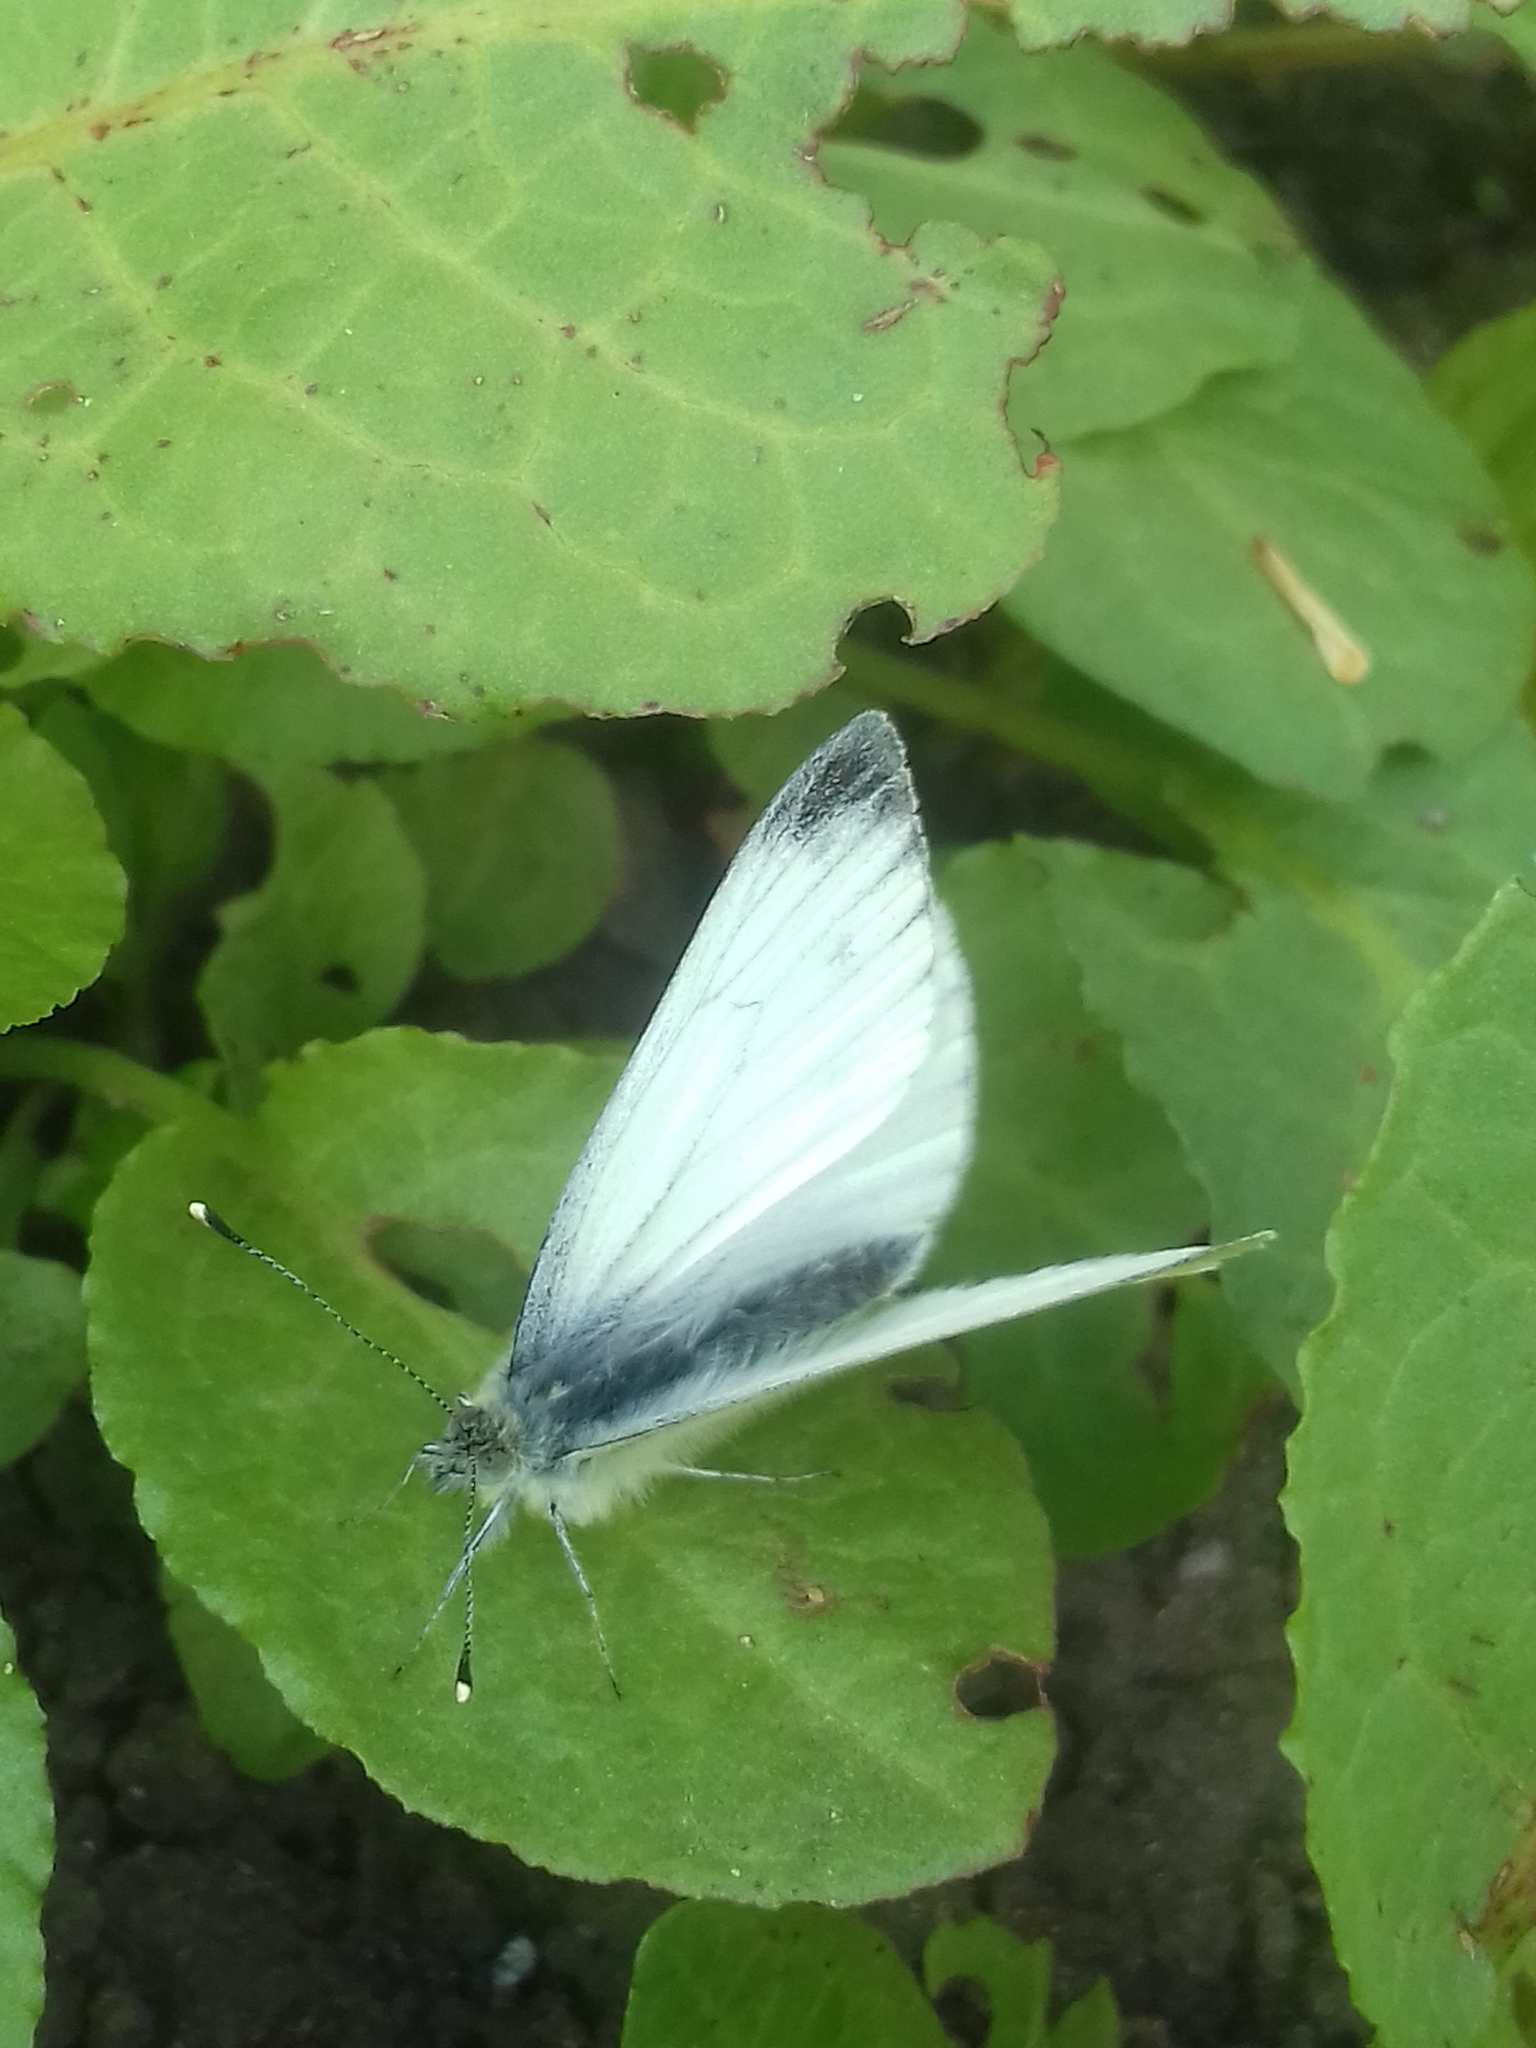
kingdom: Animalia
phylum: Arthropoda
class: Insecta
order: Lepidoptera
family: Pieridae
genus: Pieris
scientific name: Pieris napi
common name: Green-veined white
